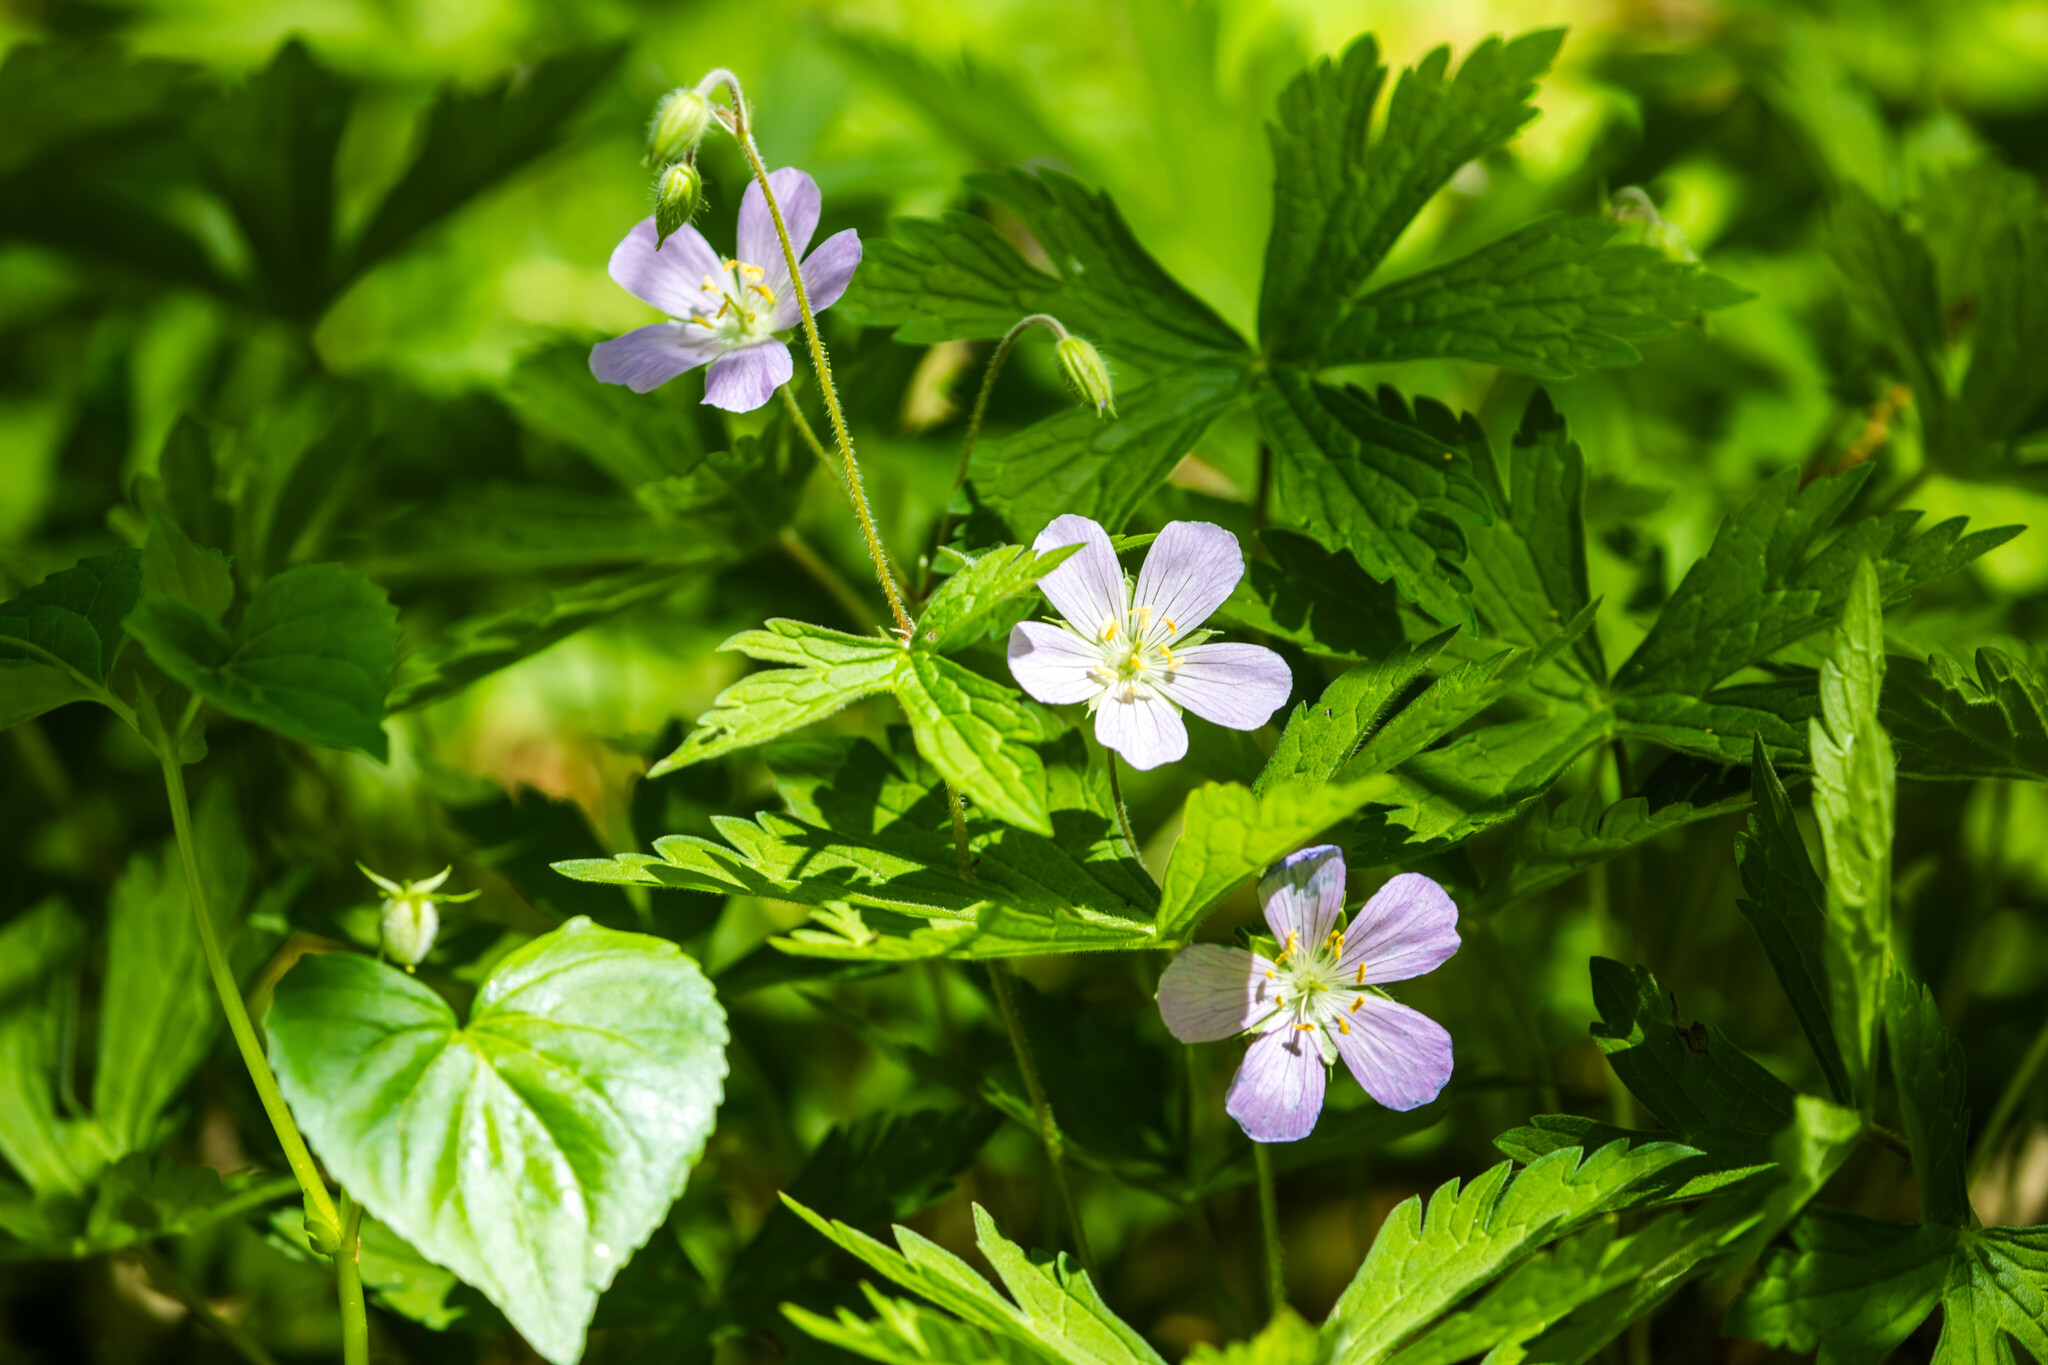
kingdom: Plantae
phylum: Tracheophyta
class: Magnoliopsida
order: Geraniales
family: Geraniaceae
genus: Geranium
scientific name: Geranium maculatum
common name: Spotted geranium
